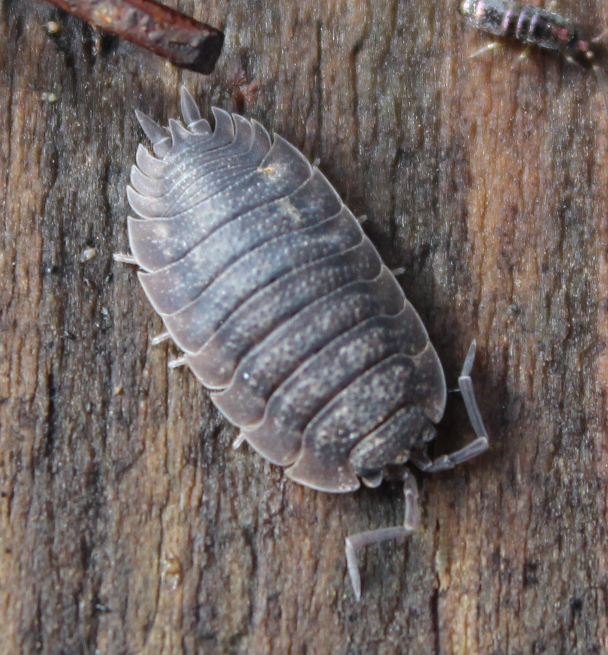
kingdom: Animalia
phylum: Arthropoda
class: Malacostraca
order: Isopoda
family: Porcellionidae
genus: Porcellio
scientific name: Porcellio scaber
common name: Common rough woodlouse
